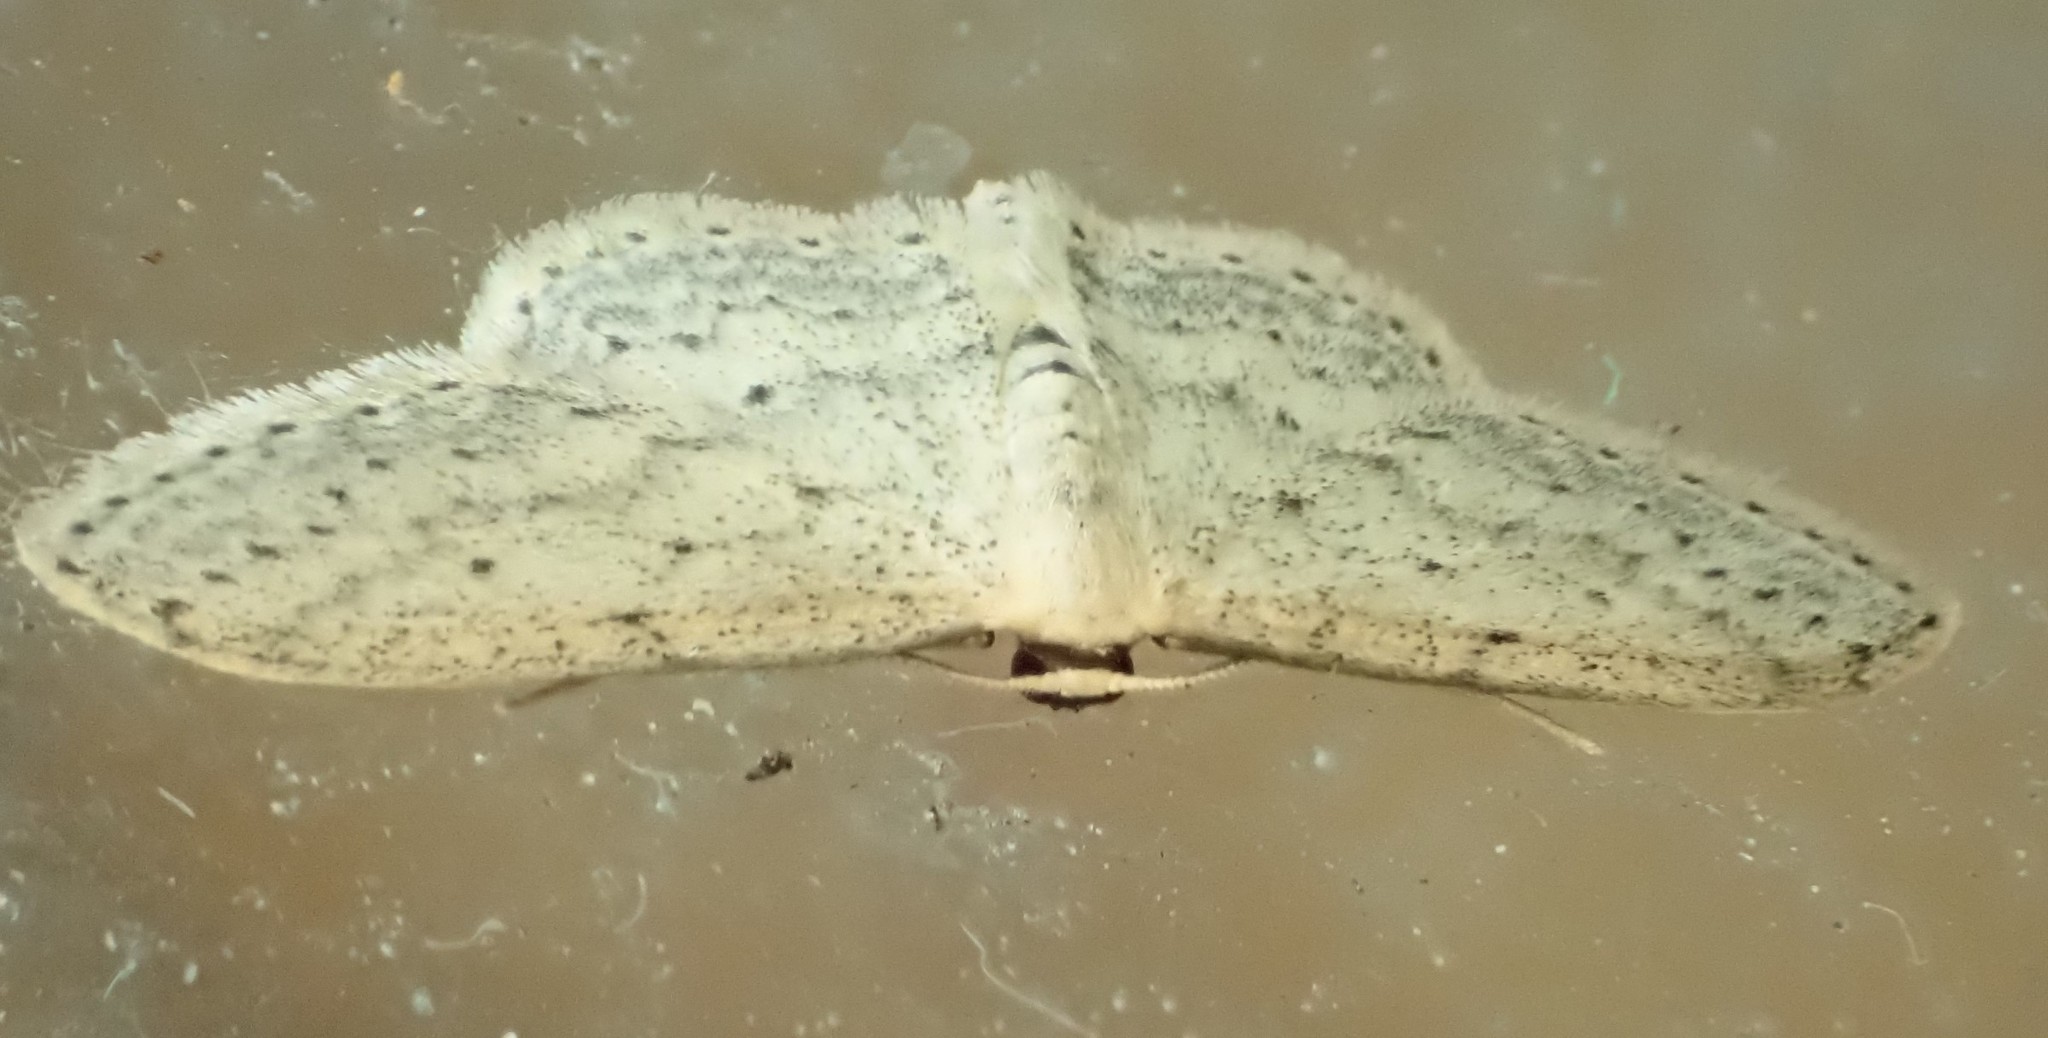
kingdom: Animalia
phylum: Arthropoda
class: Insecta
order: Lepidoptera
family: Geometridae
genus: Idaea
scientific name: Idaea seriata
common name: Small dusty wave
